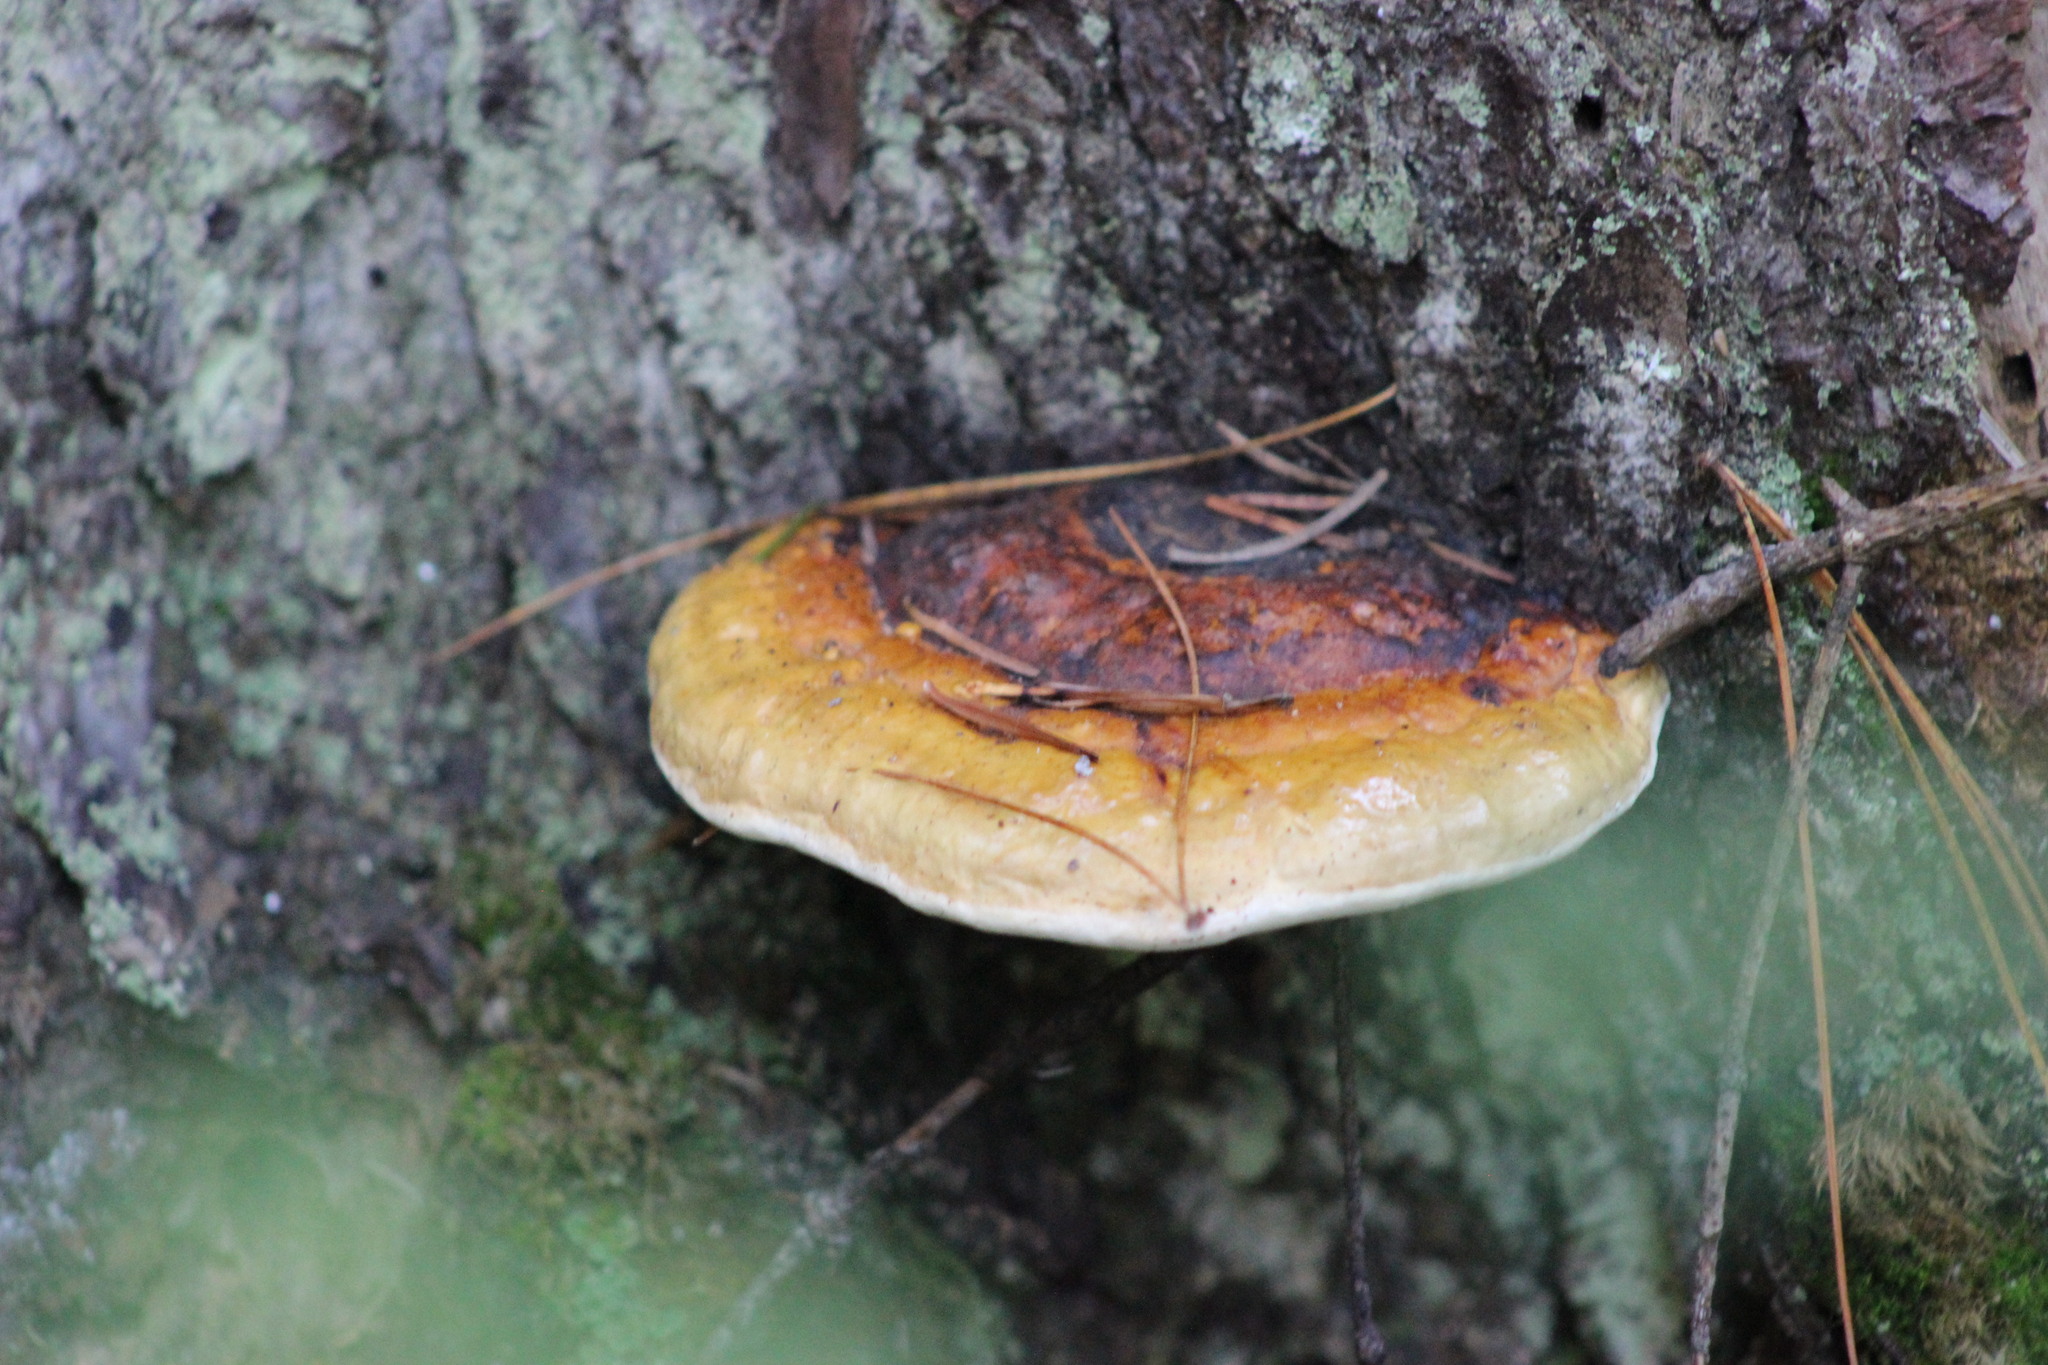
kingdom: Fungi
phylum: Basidiomycota
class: Agaricomycetes
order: Polyporales
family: Fomitopsidaceae
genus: Fomitopsis
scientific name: Fomitopsis pinicola
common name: Red-belted bracket
